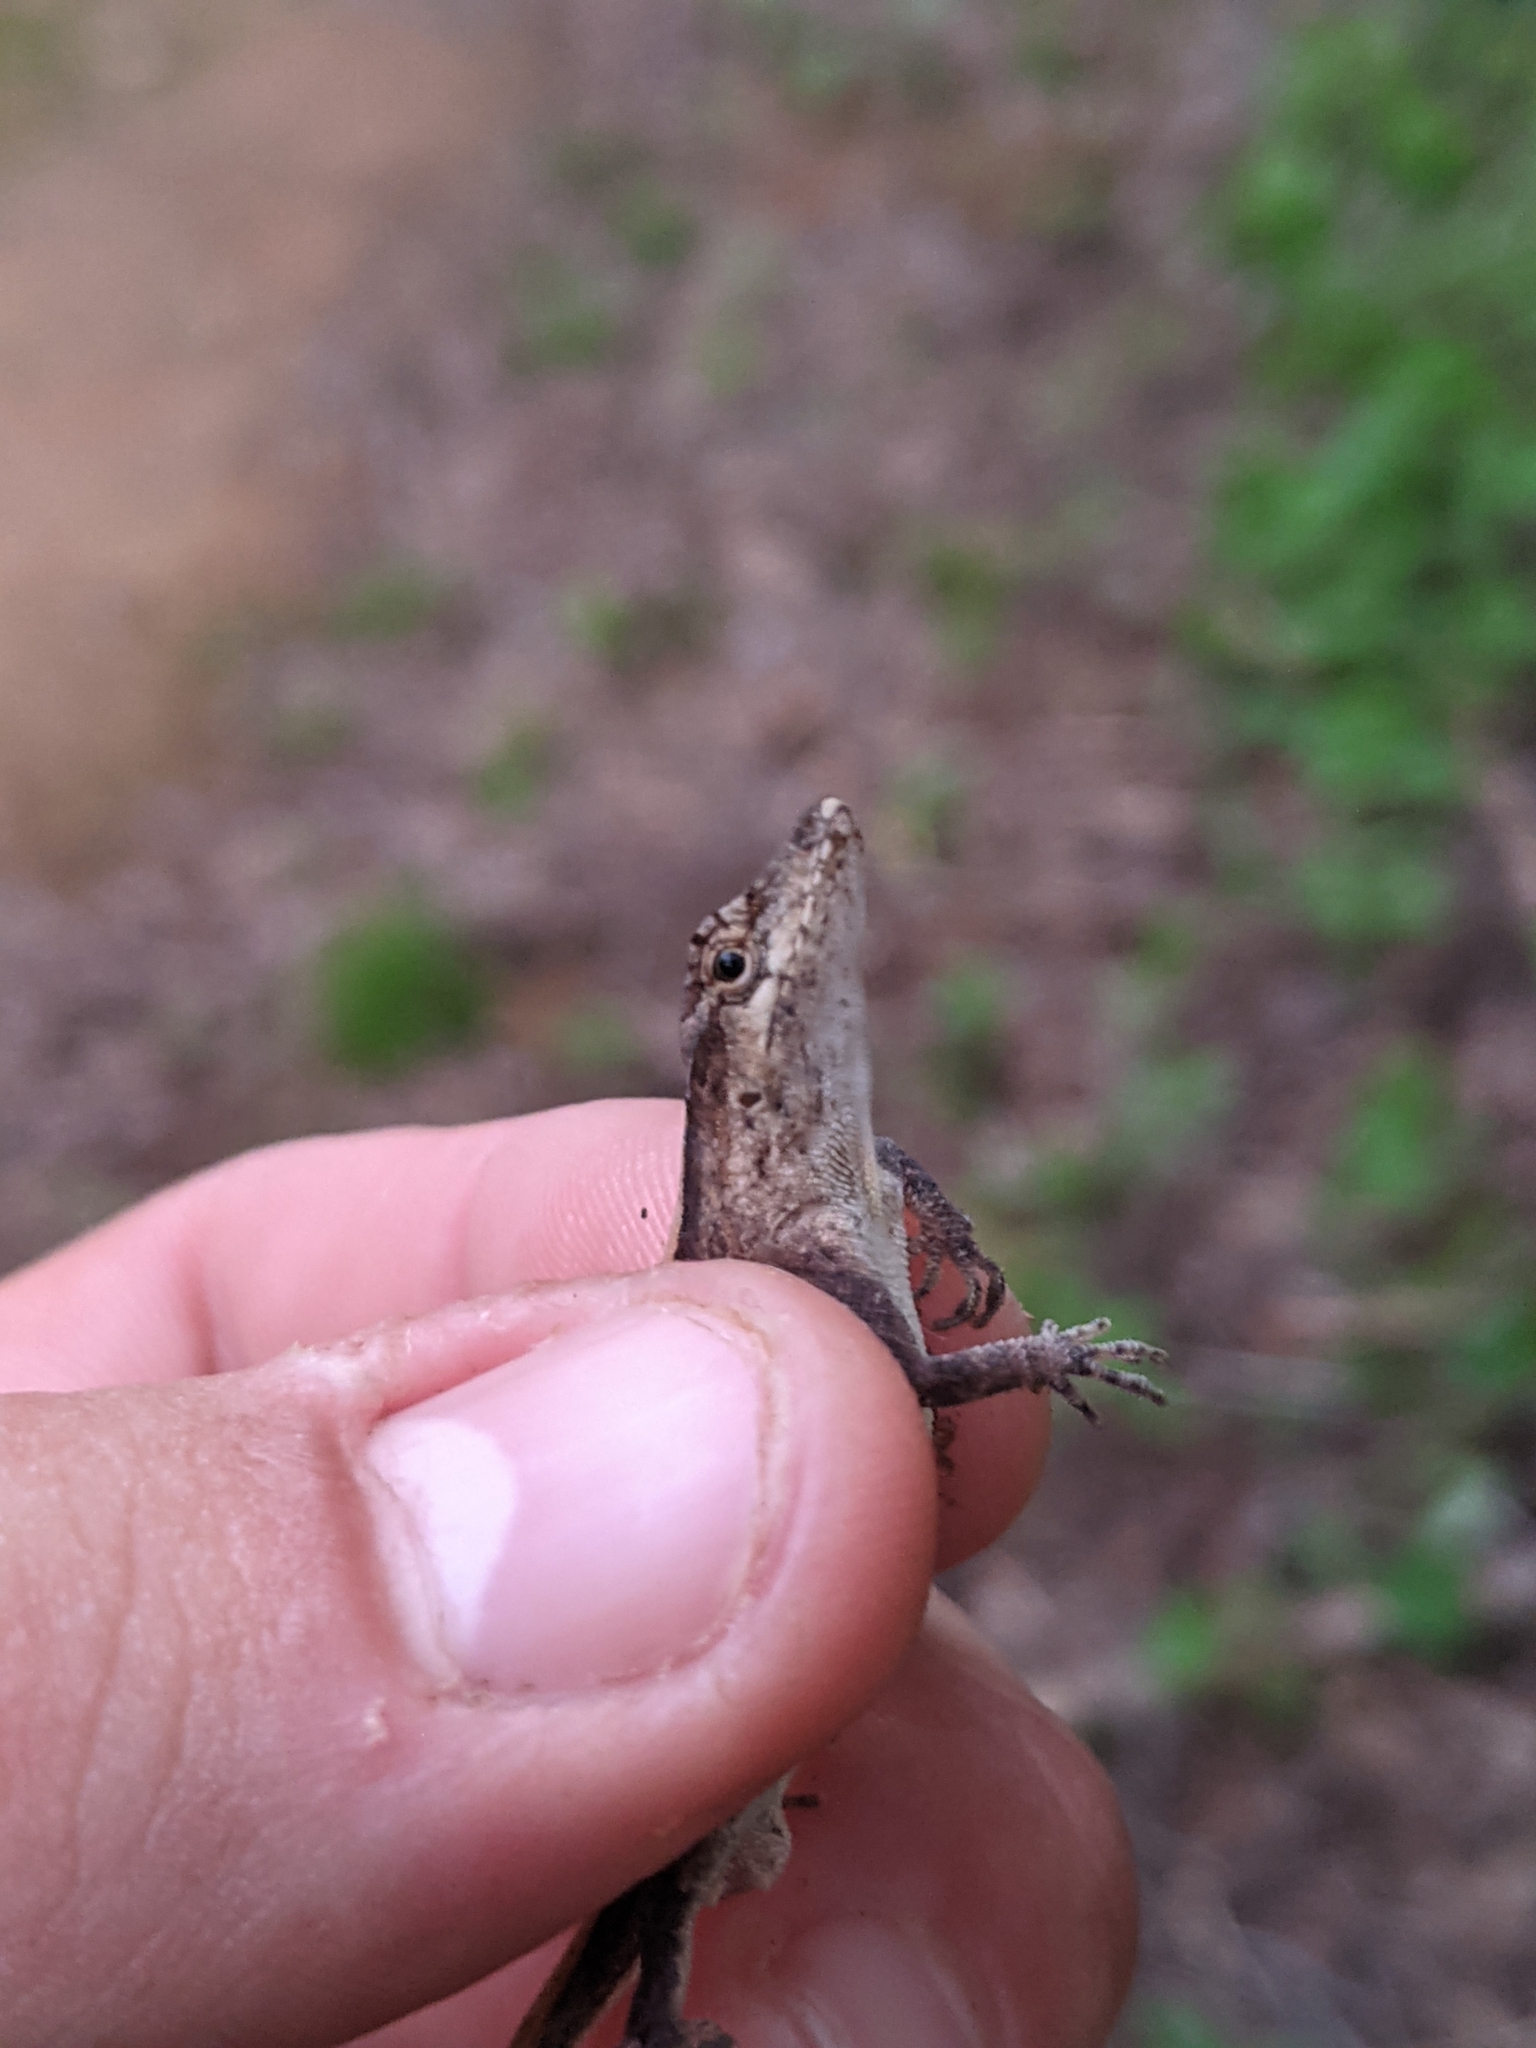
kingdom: Animalia
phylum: Chordata
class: Squamata
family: Dactyloidae
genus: Anolis
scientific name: Anolis nebulosus
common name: Clouded anole
